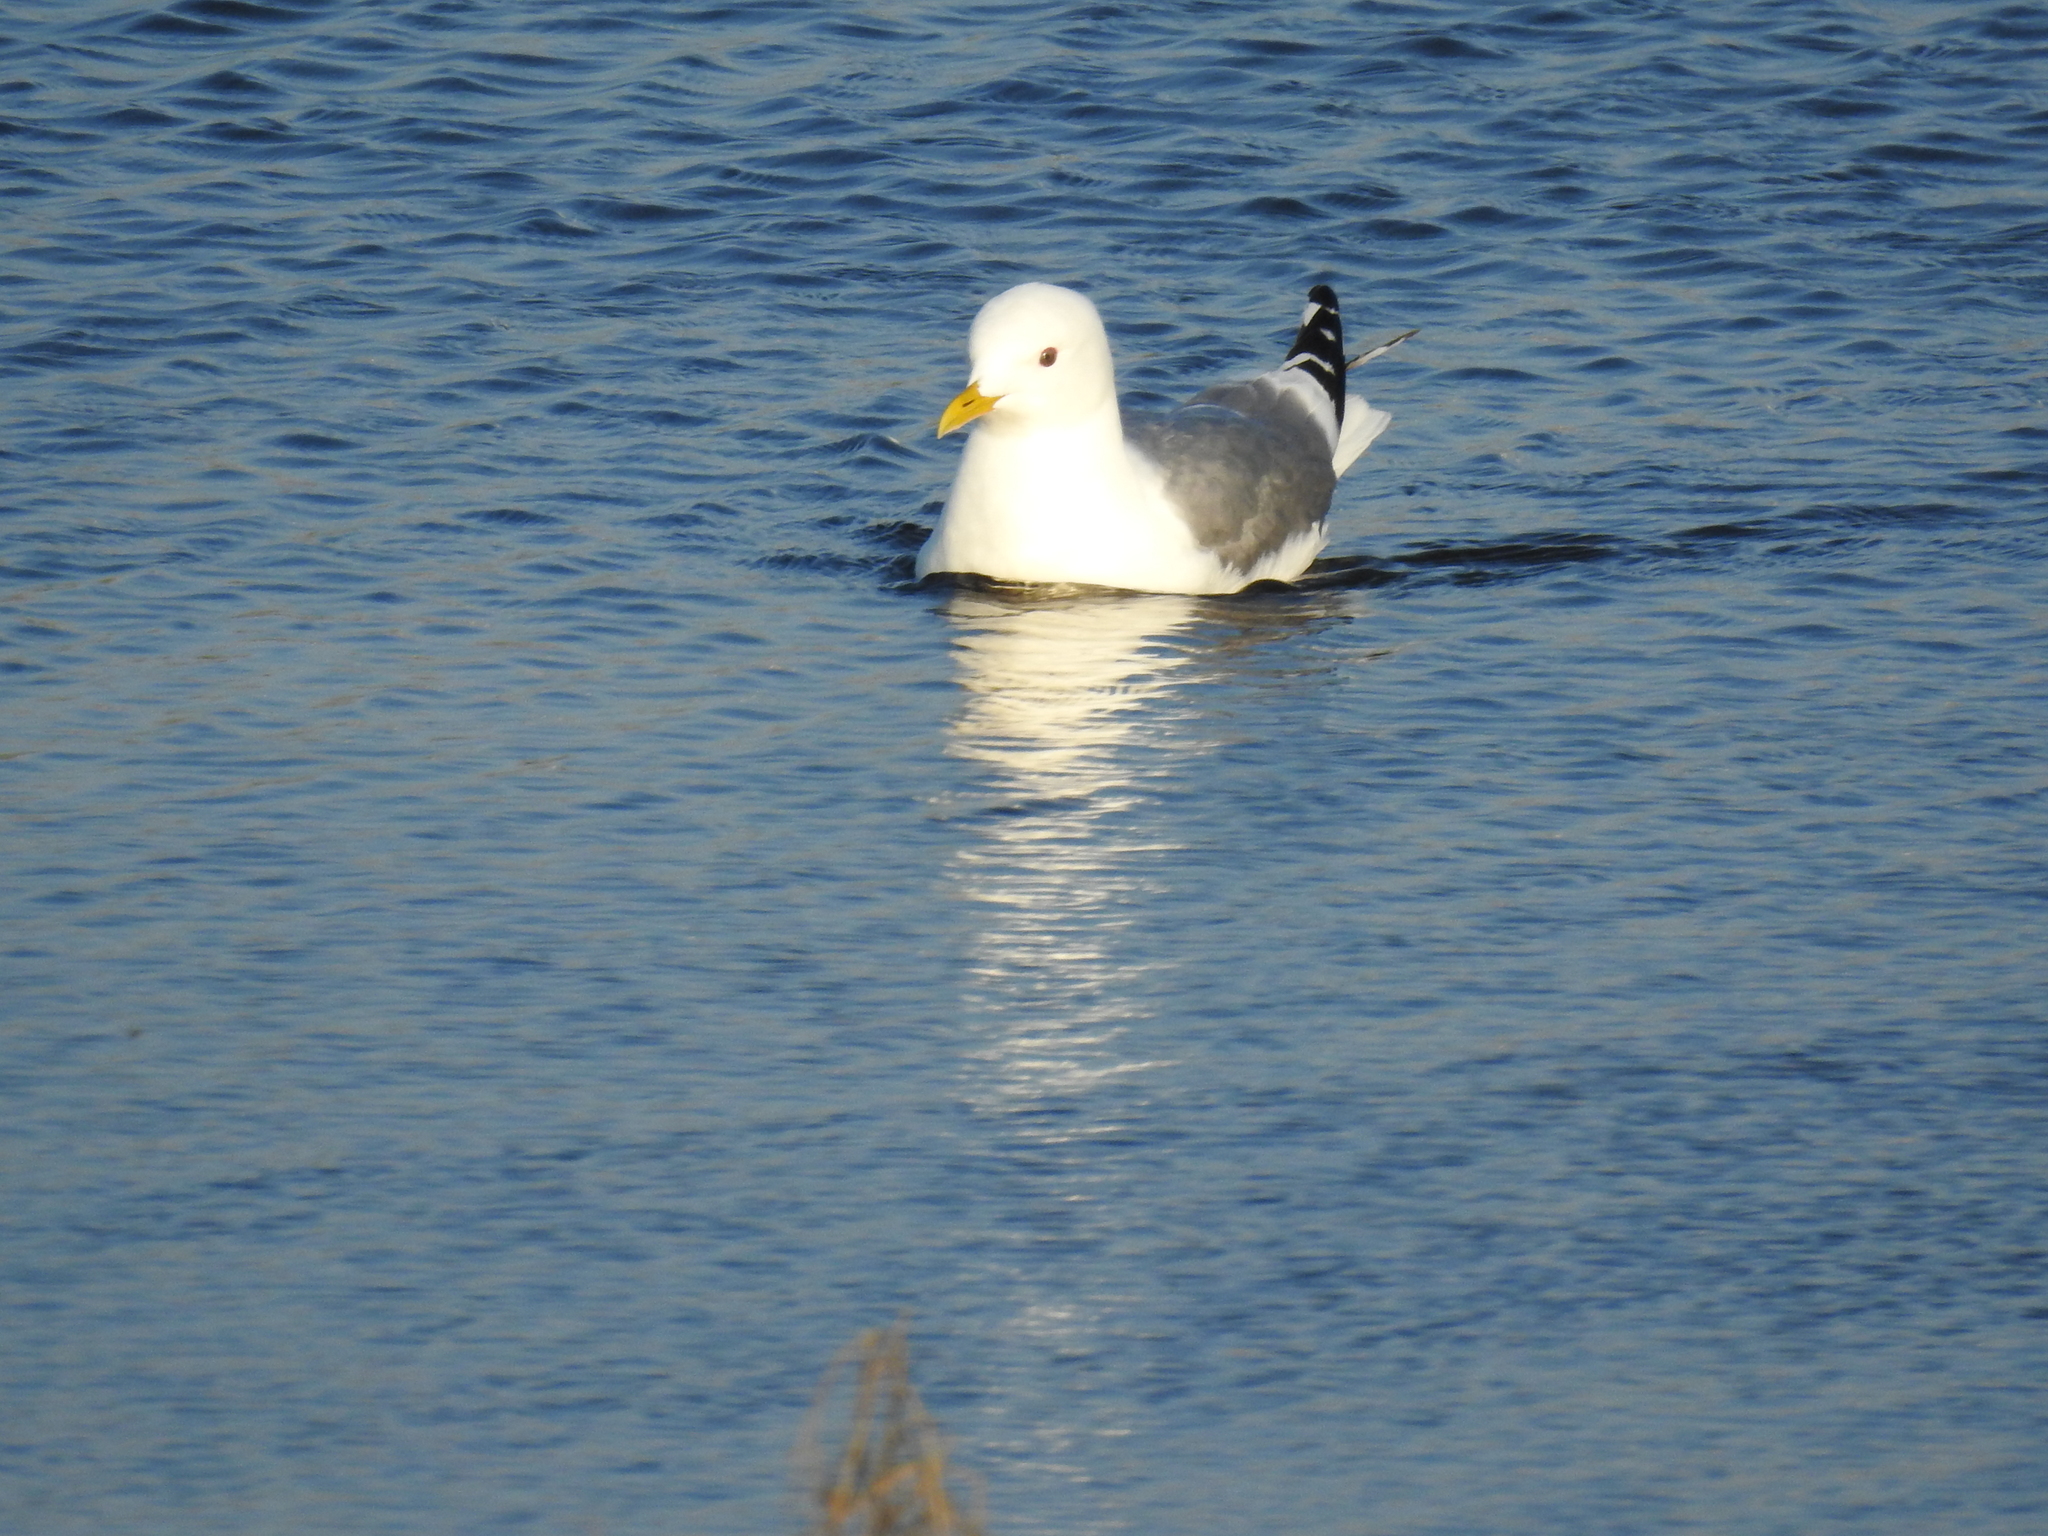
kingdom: Animalia
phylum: Chordata
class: Aves
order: Charadriiformes
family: Laridae
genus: Larus
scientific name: Larus brachyrhynchus
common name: Short-billed gull
